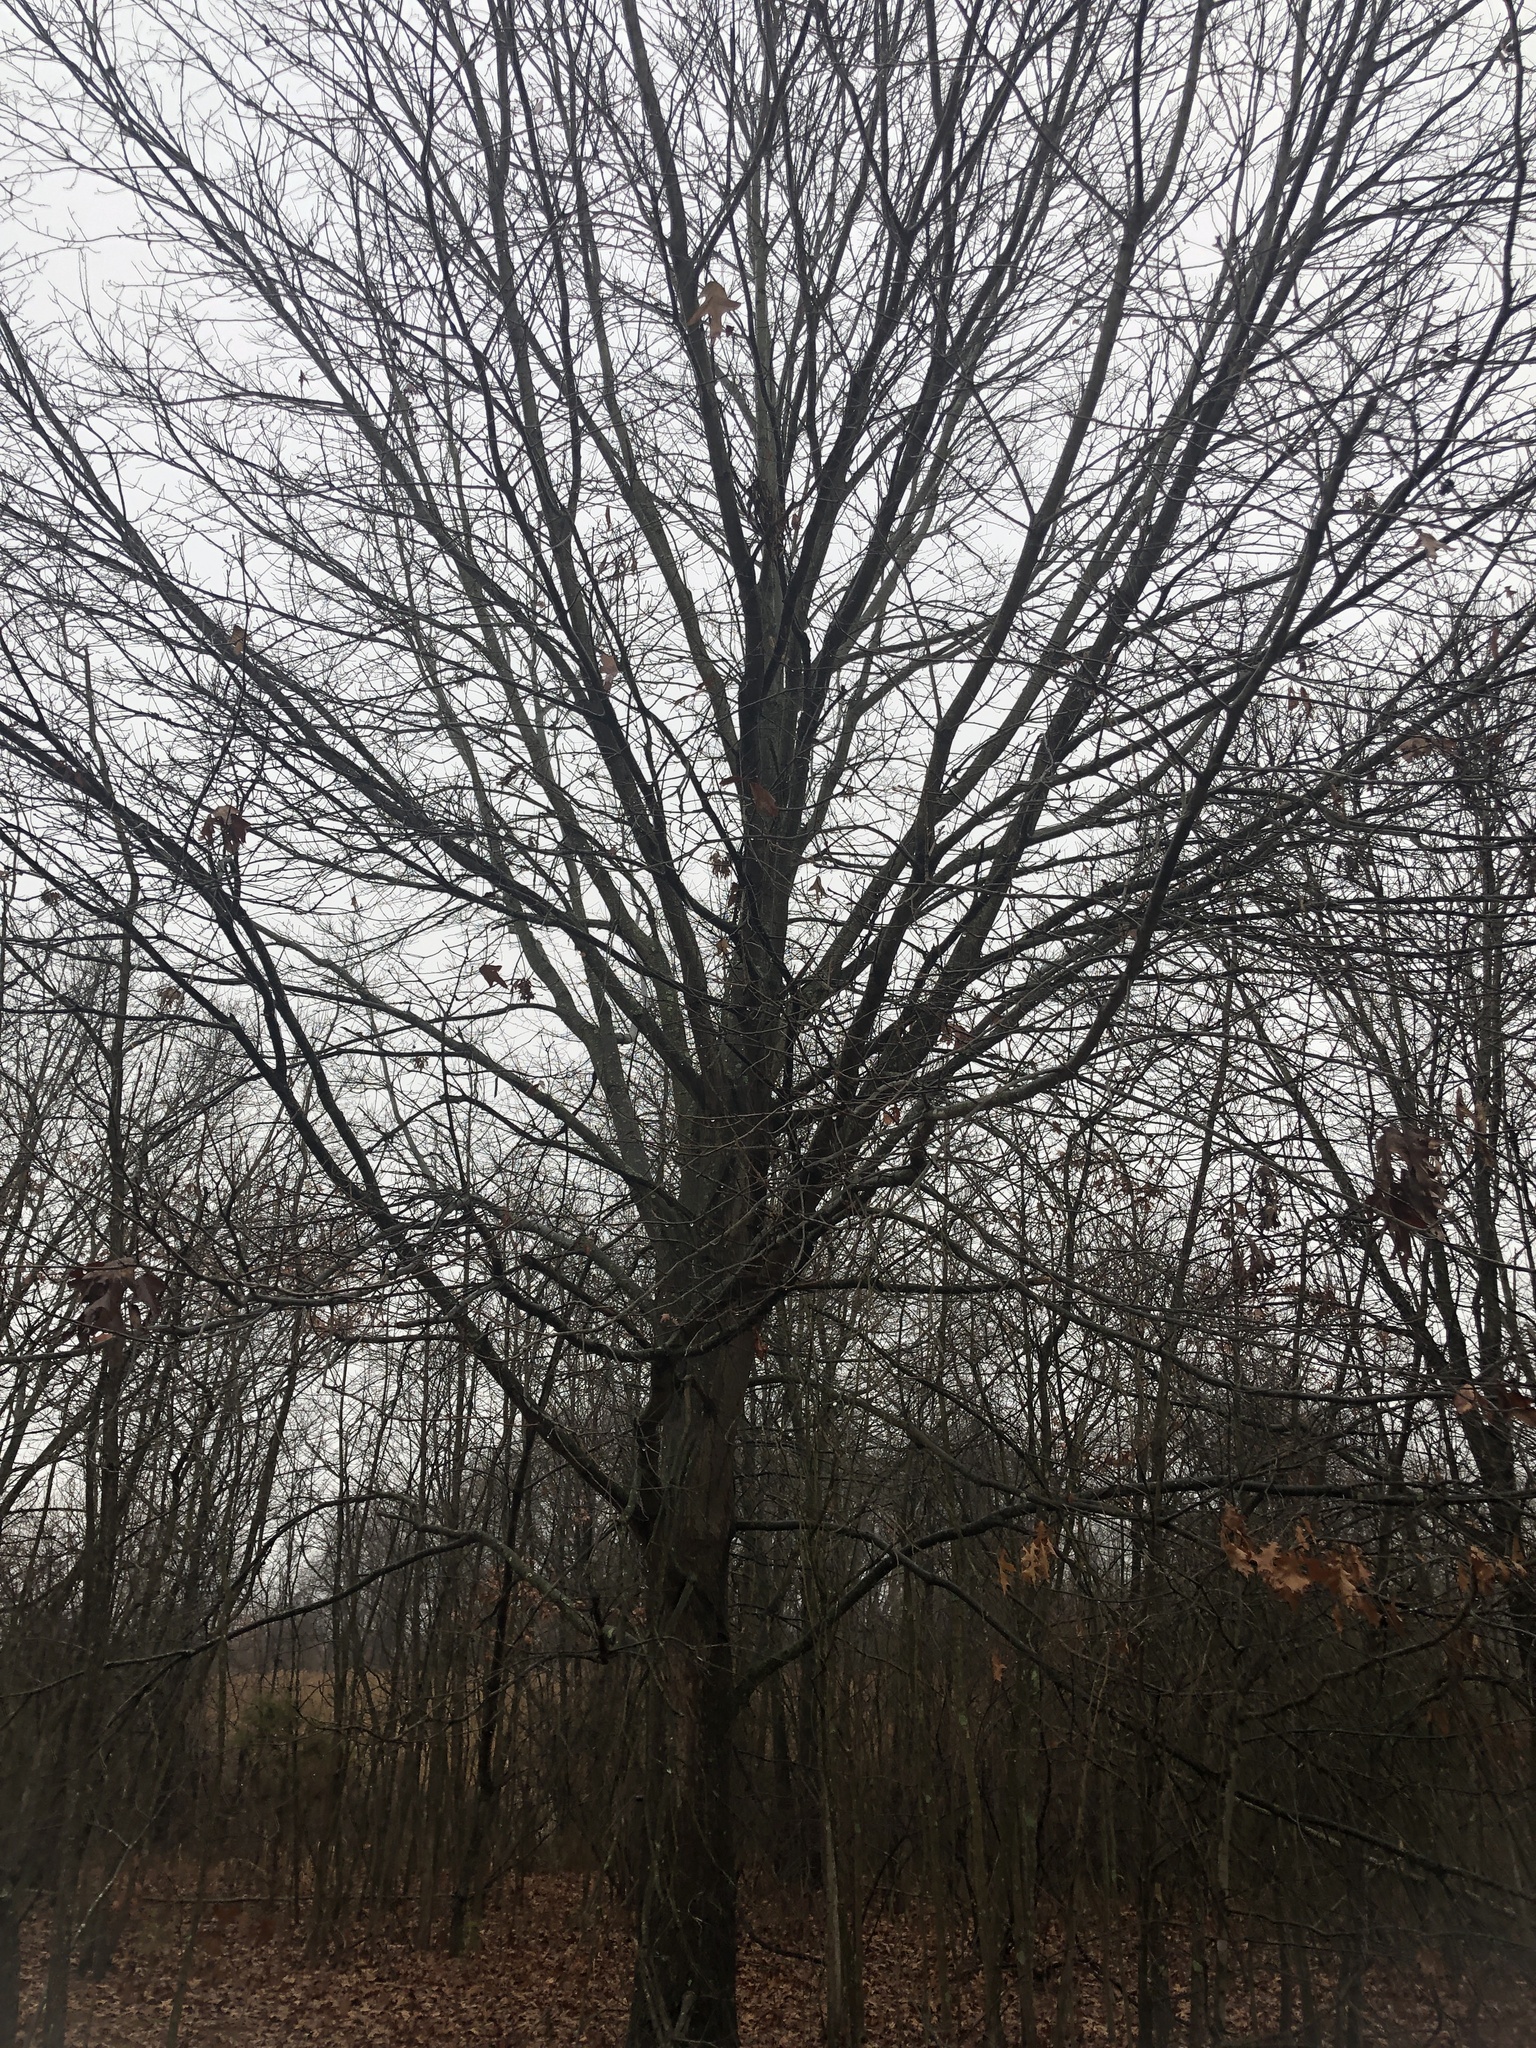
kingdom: Plantae
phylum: Tracheophyta
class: Magnoliopsida
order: Fagales
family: Fagaceae
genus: Quercus
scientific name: Quercus palustris
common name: Pin oak
